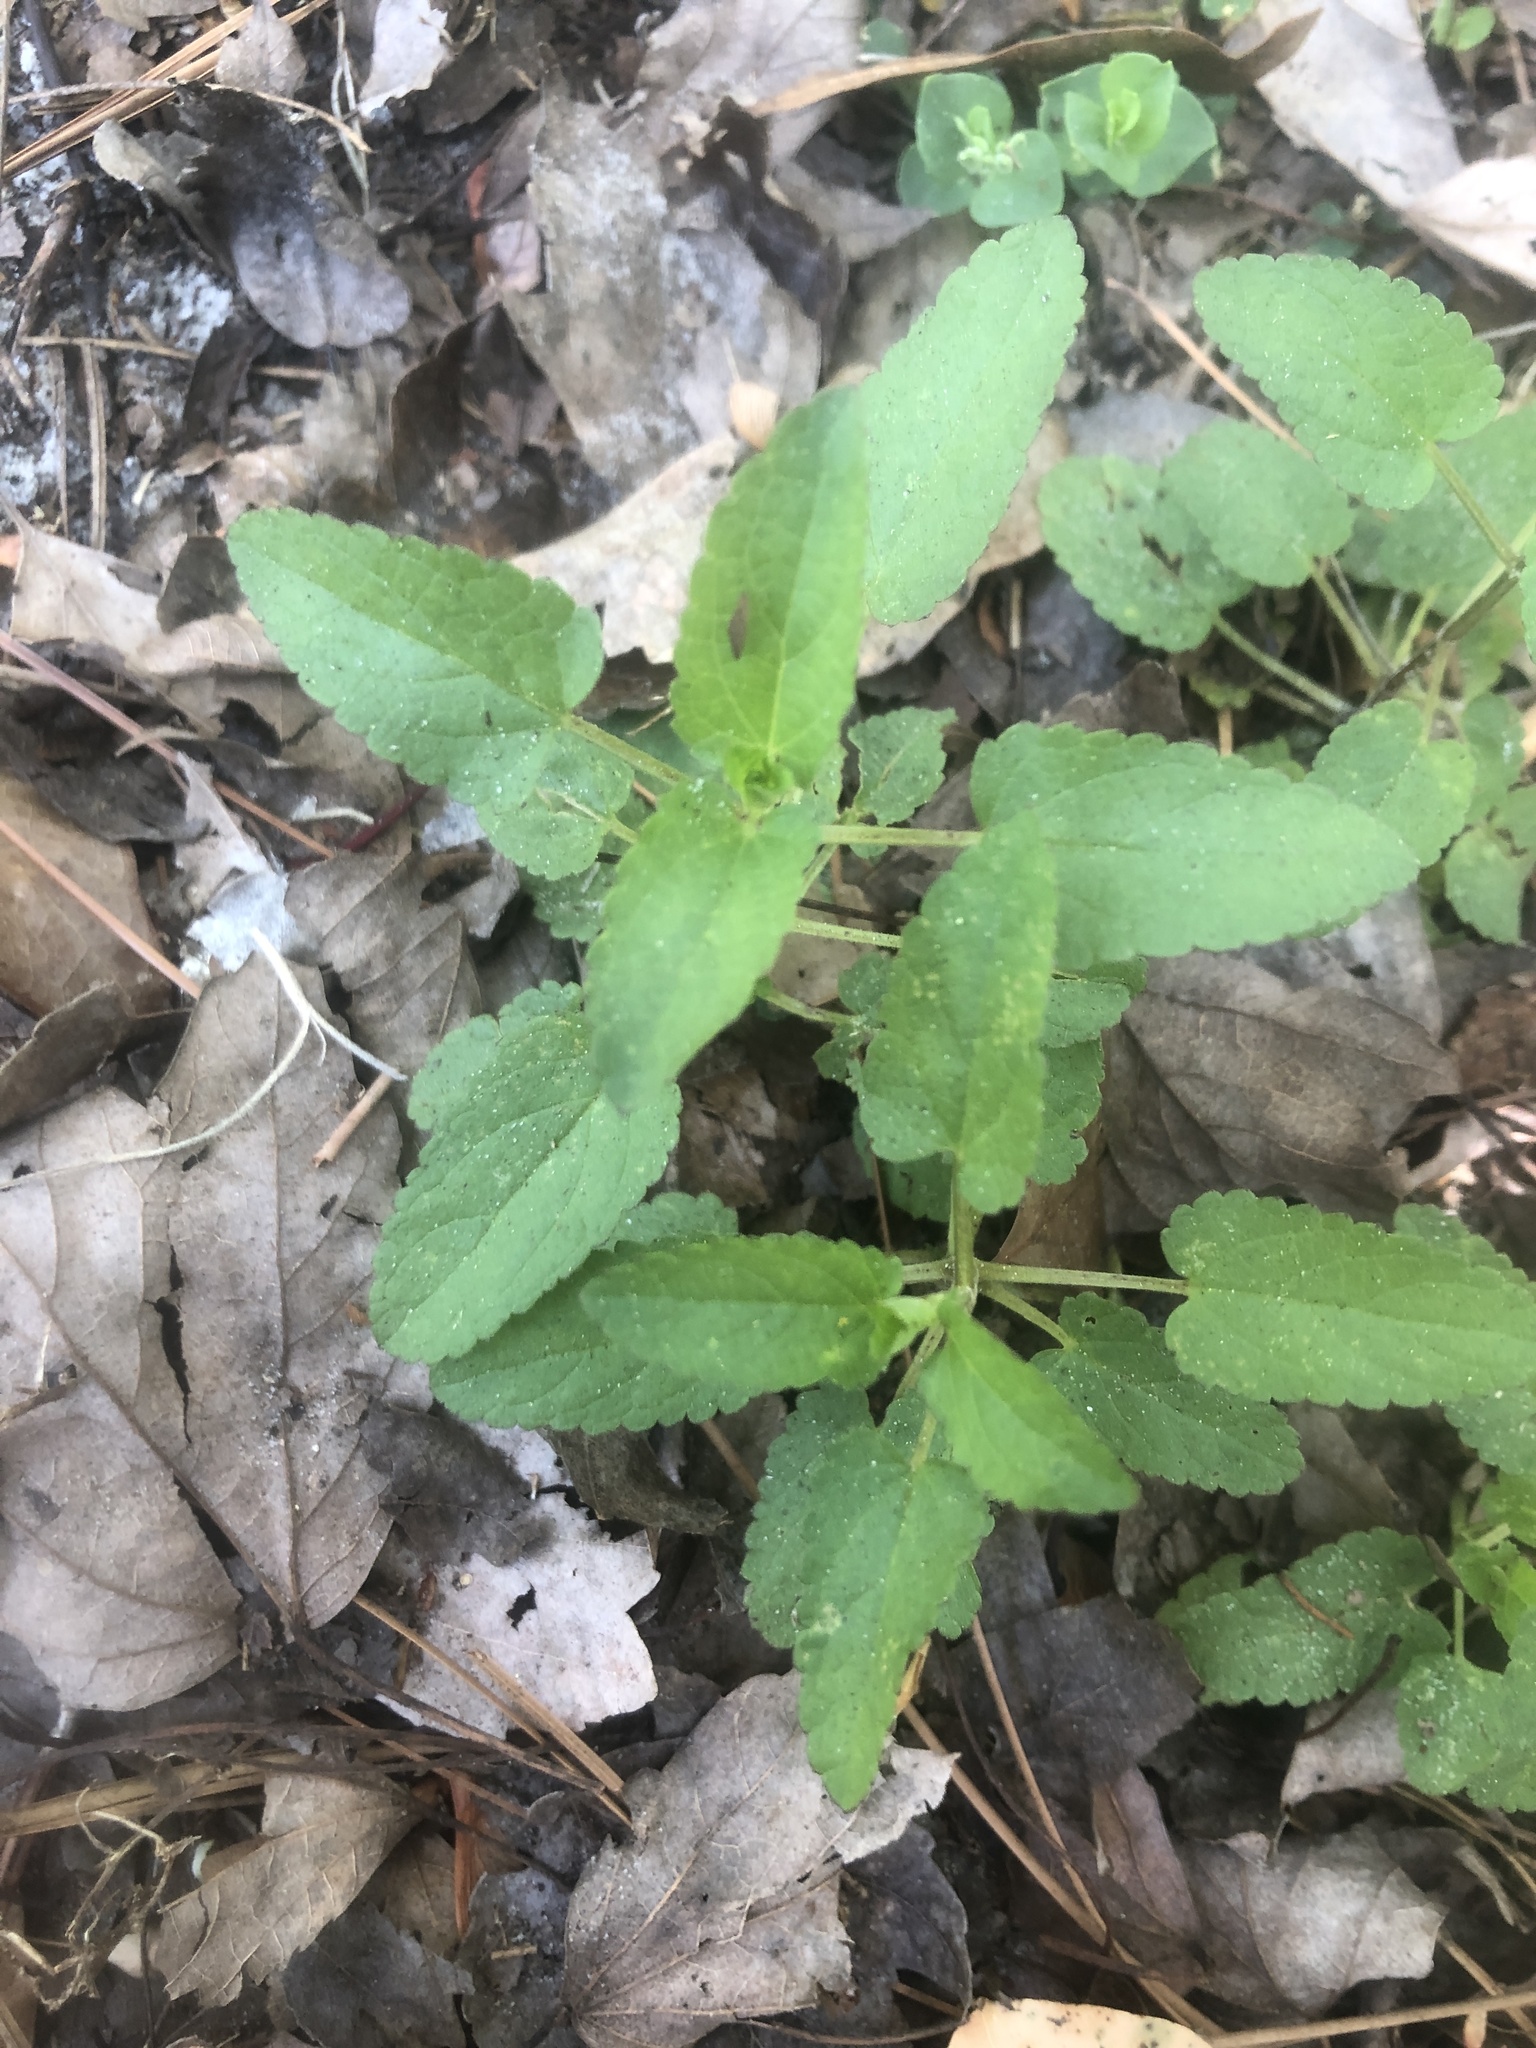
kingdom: Plantae
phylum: Tracheophyta
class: Magnoliopsida
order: Lamiales
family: Lamiaceae
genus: Stachys
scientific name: Stachys floridana
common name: Florida betony
